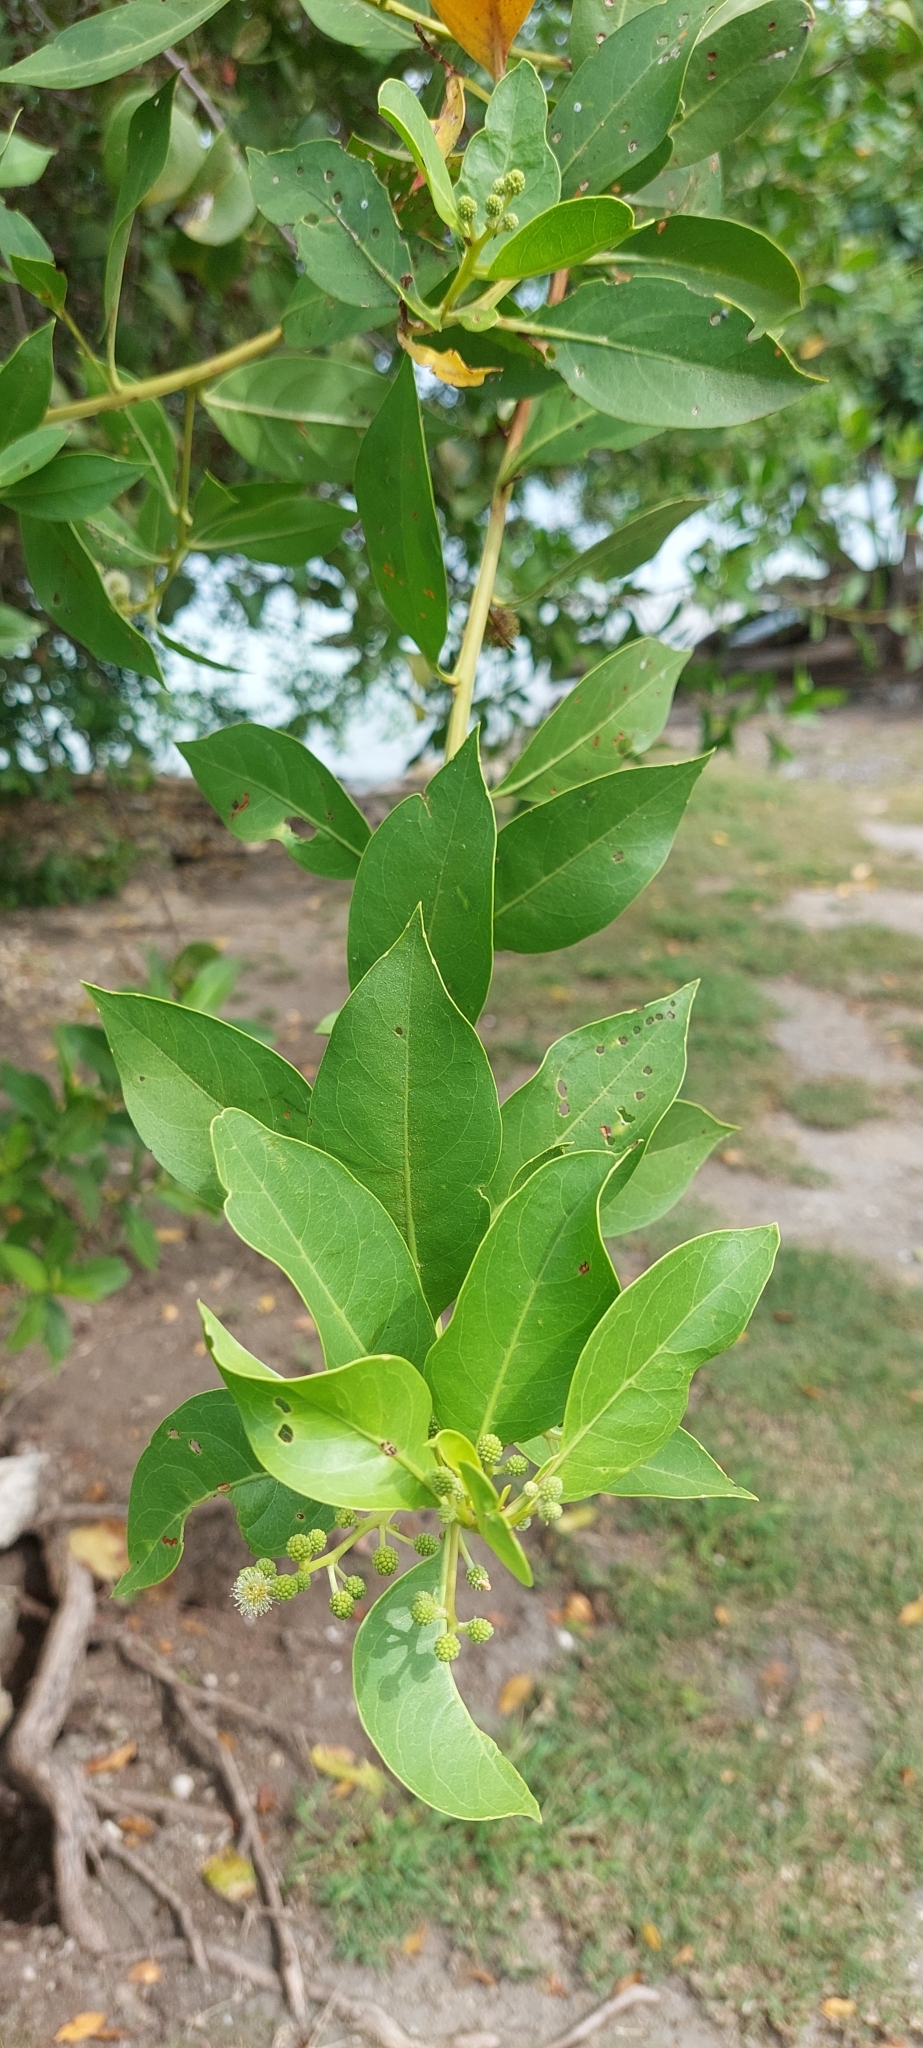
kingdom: Plantae
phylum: Tracheophyta
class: Magnoliopsida
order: Myrtales
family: Combretaceae
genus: Conocarpus
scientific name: Conocarpus erectus
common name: Button mangrove
